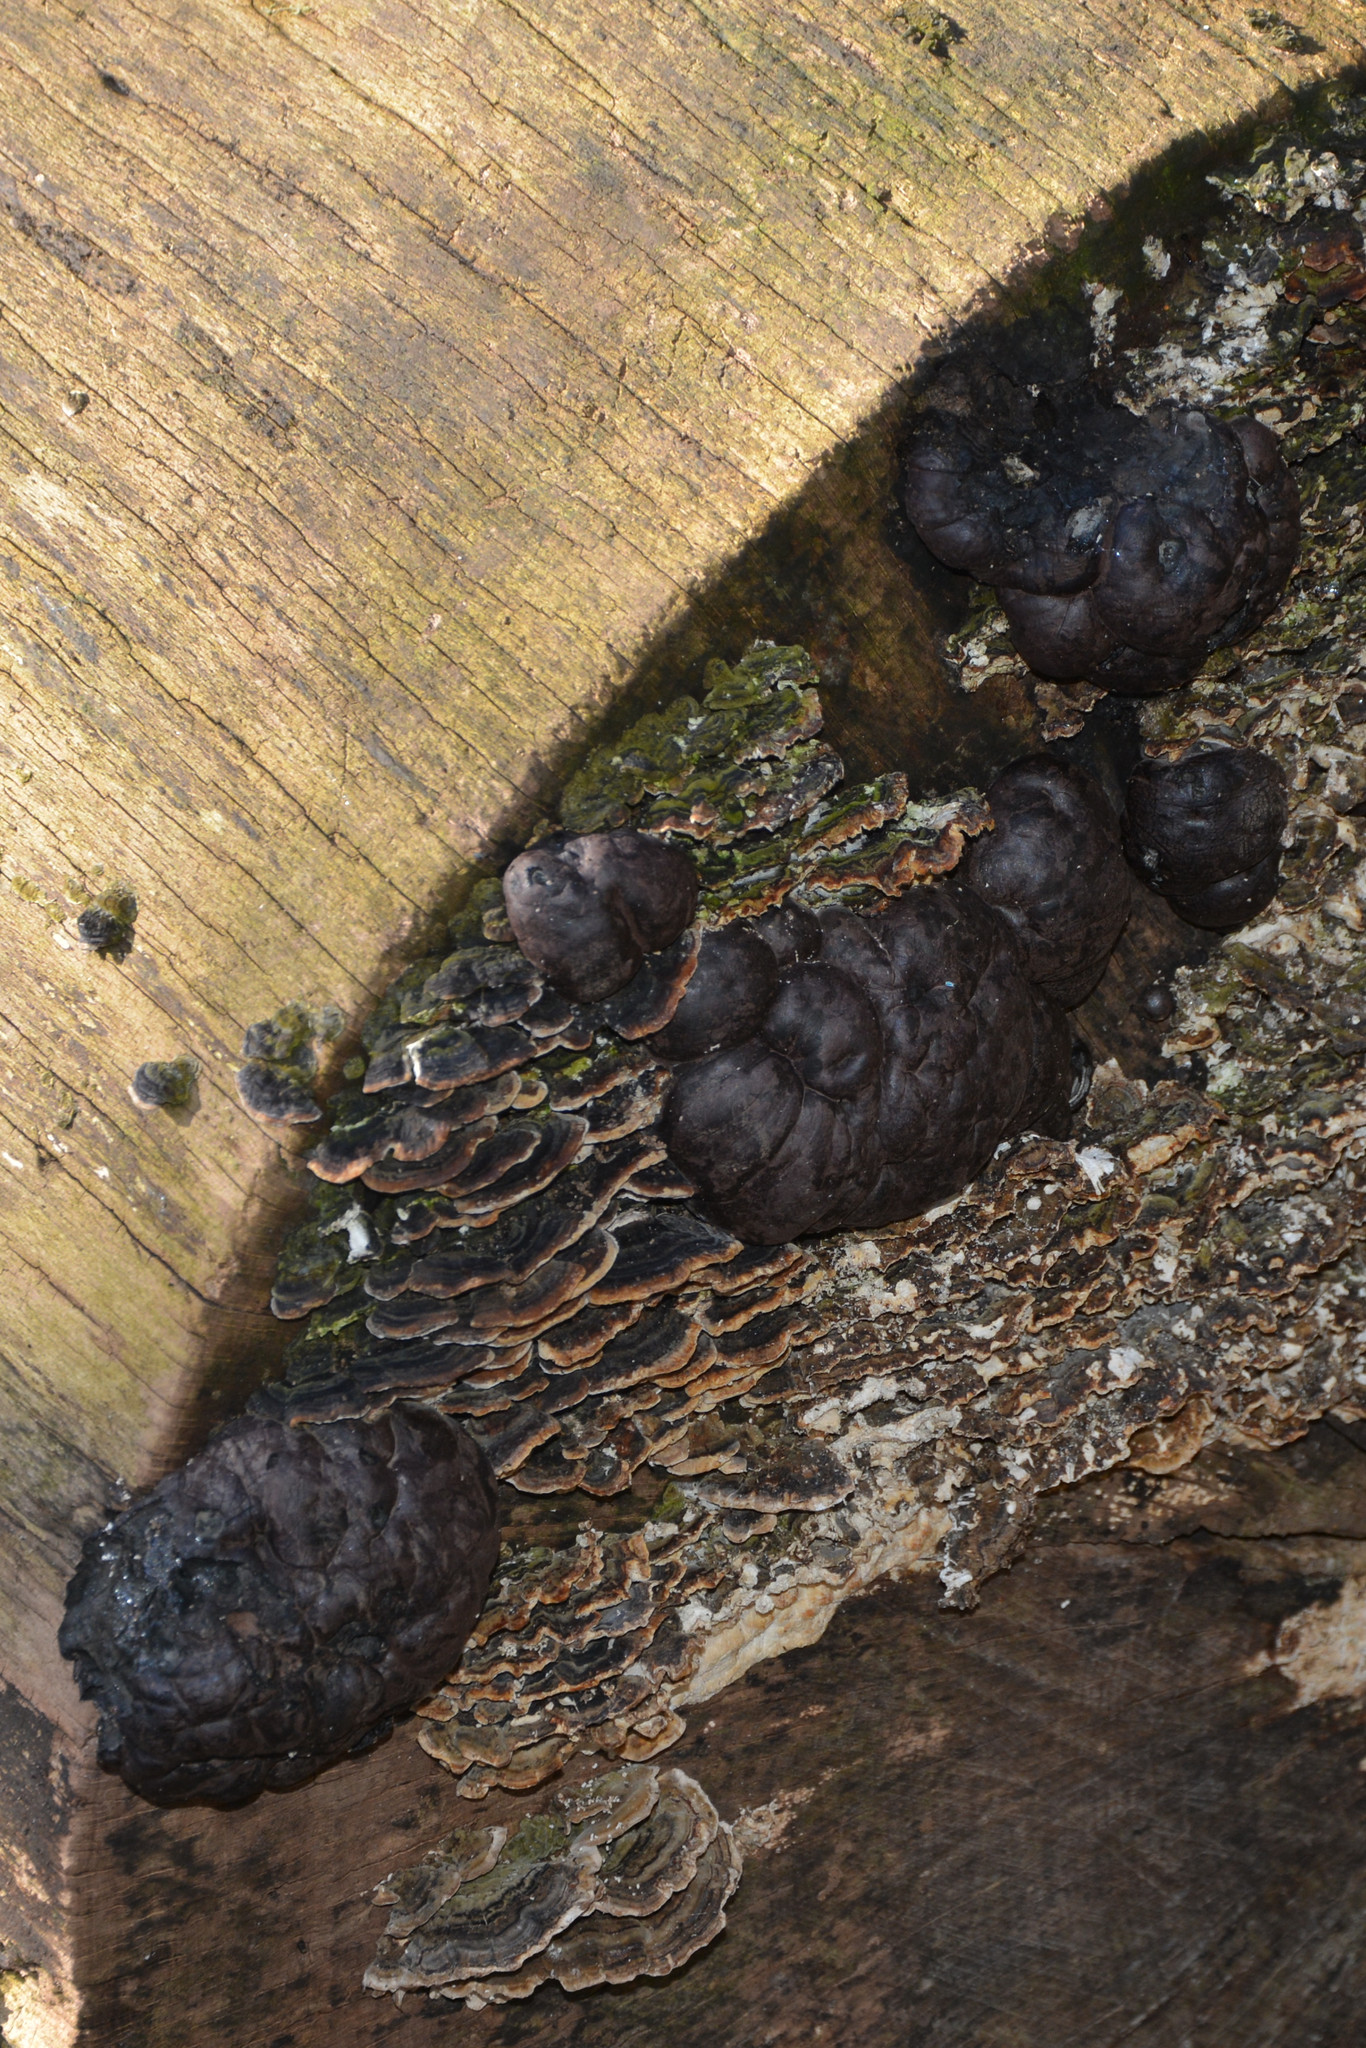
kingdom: Fungi
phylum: Ascomycota
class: Sordariomycetes
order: Xylariales
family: Hypoxylaceae
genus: Daldinia
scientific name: Daldinia concentrica
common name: Cramp balls
